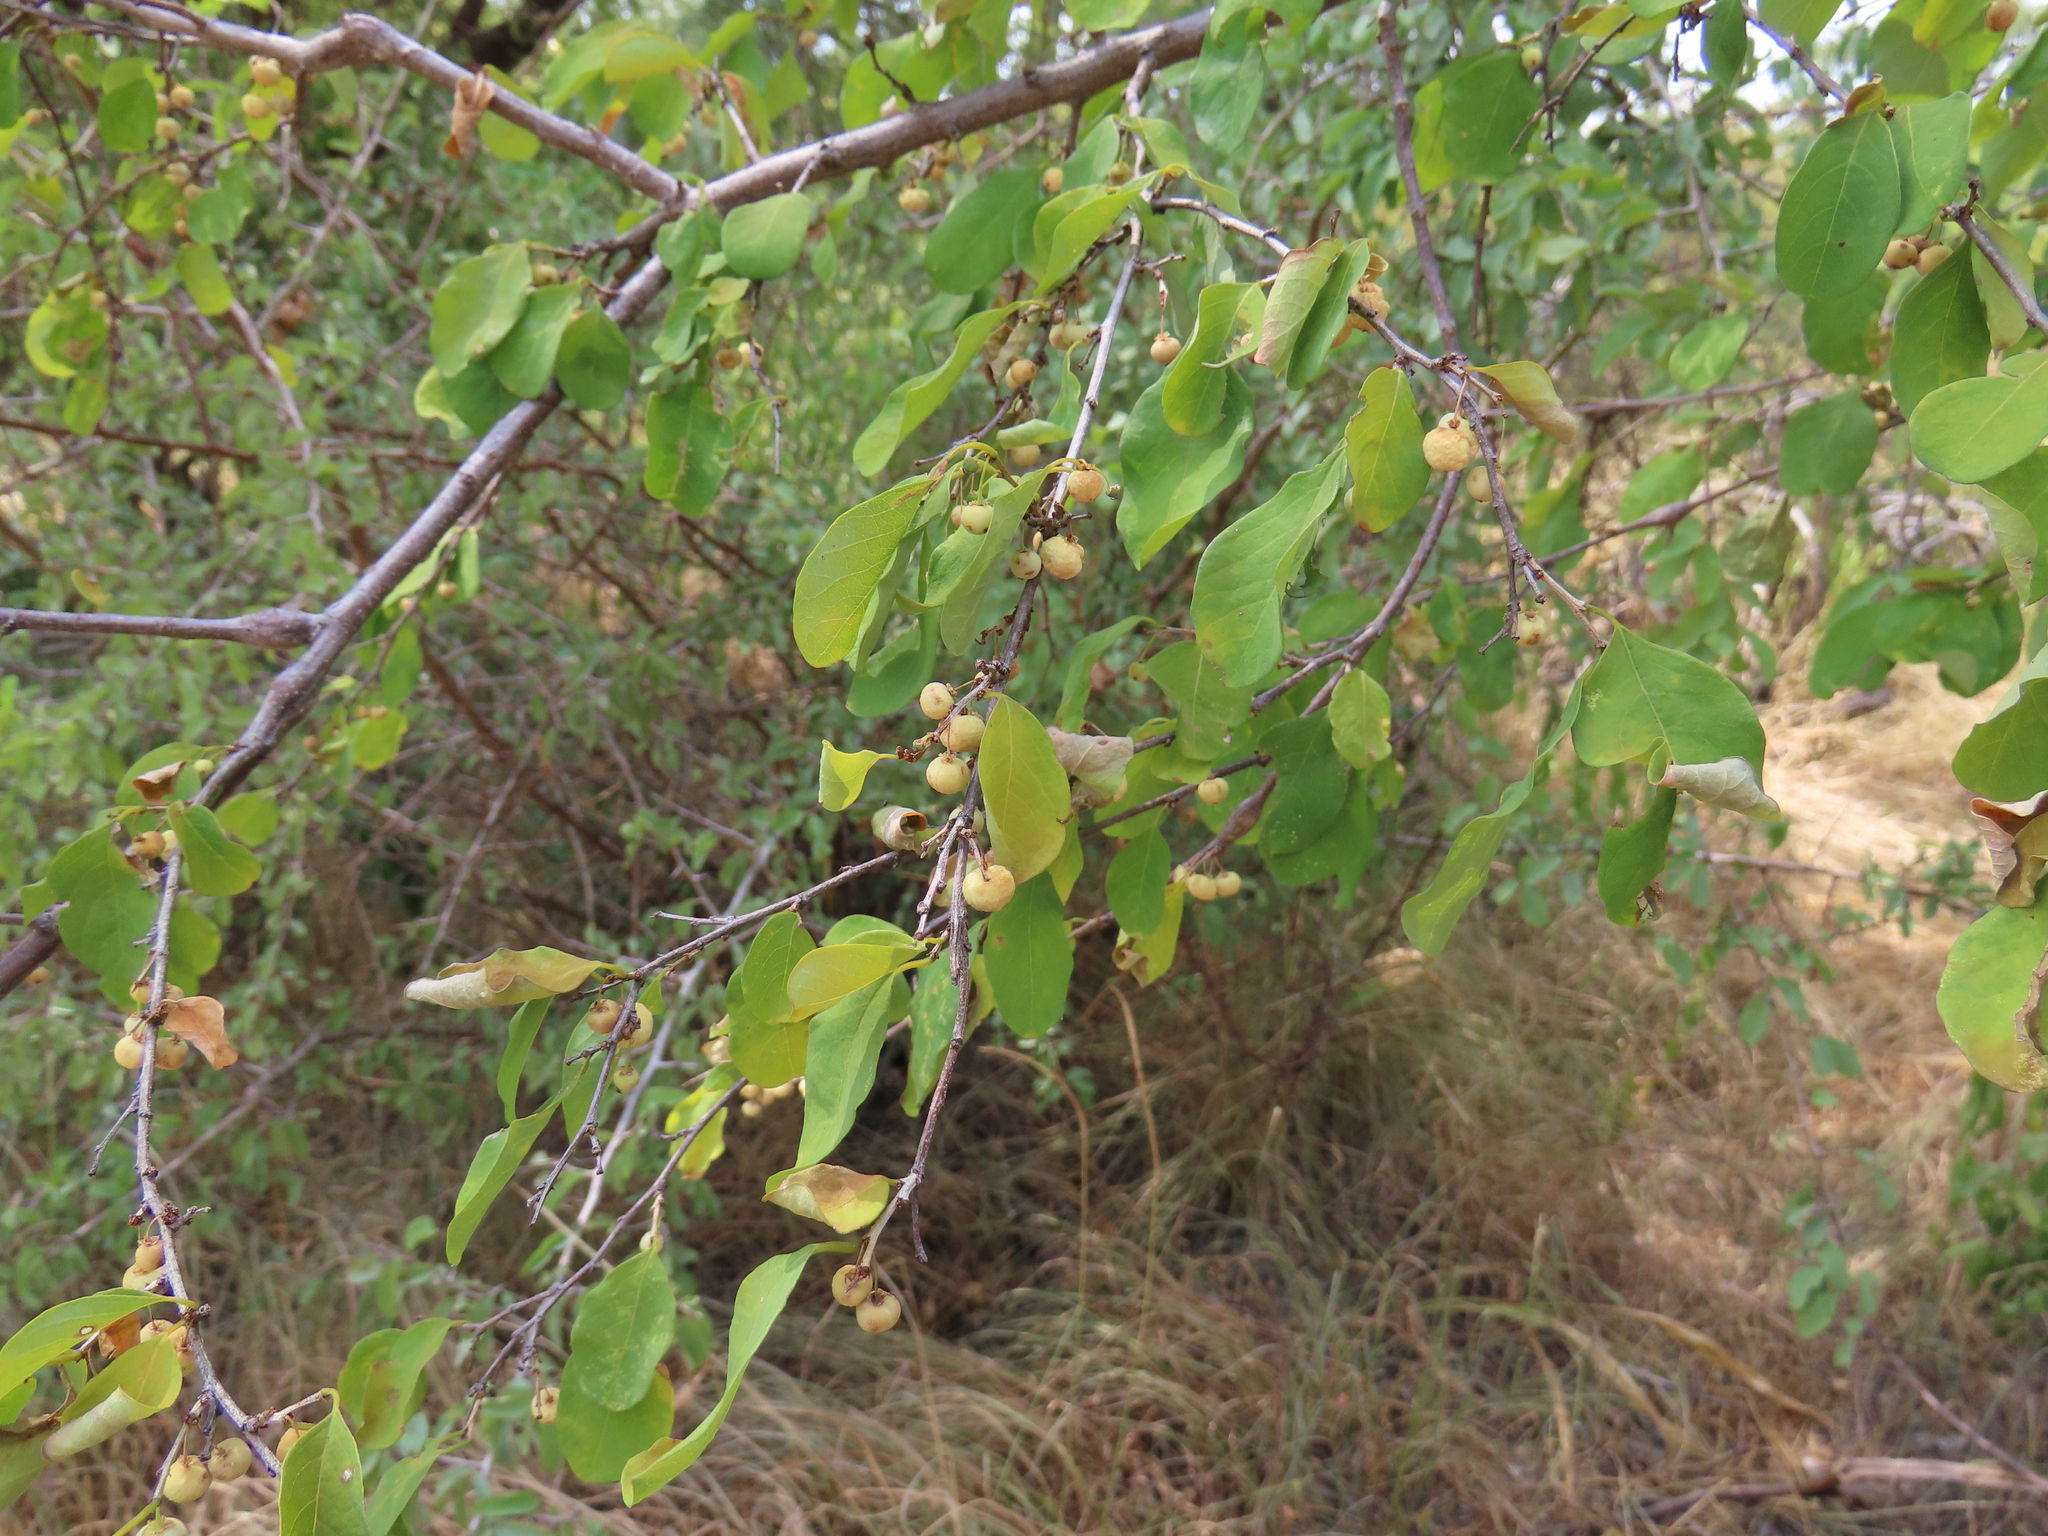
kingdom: Plantae
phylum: Tracheophyta
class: Magnoliopsida
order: Malpighiales
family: Phyllanthaceae
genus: Flueggea
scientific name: Flueggea virosa
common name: Common bushweed
